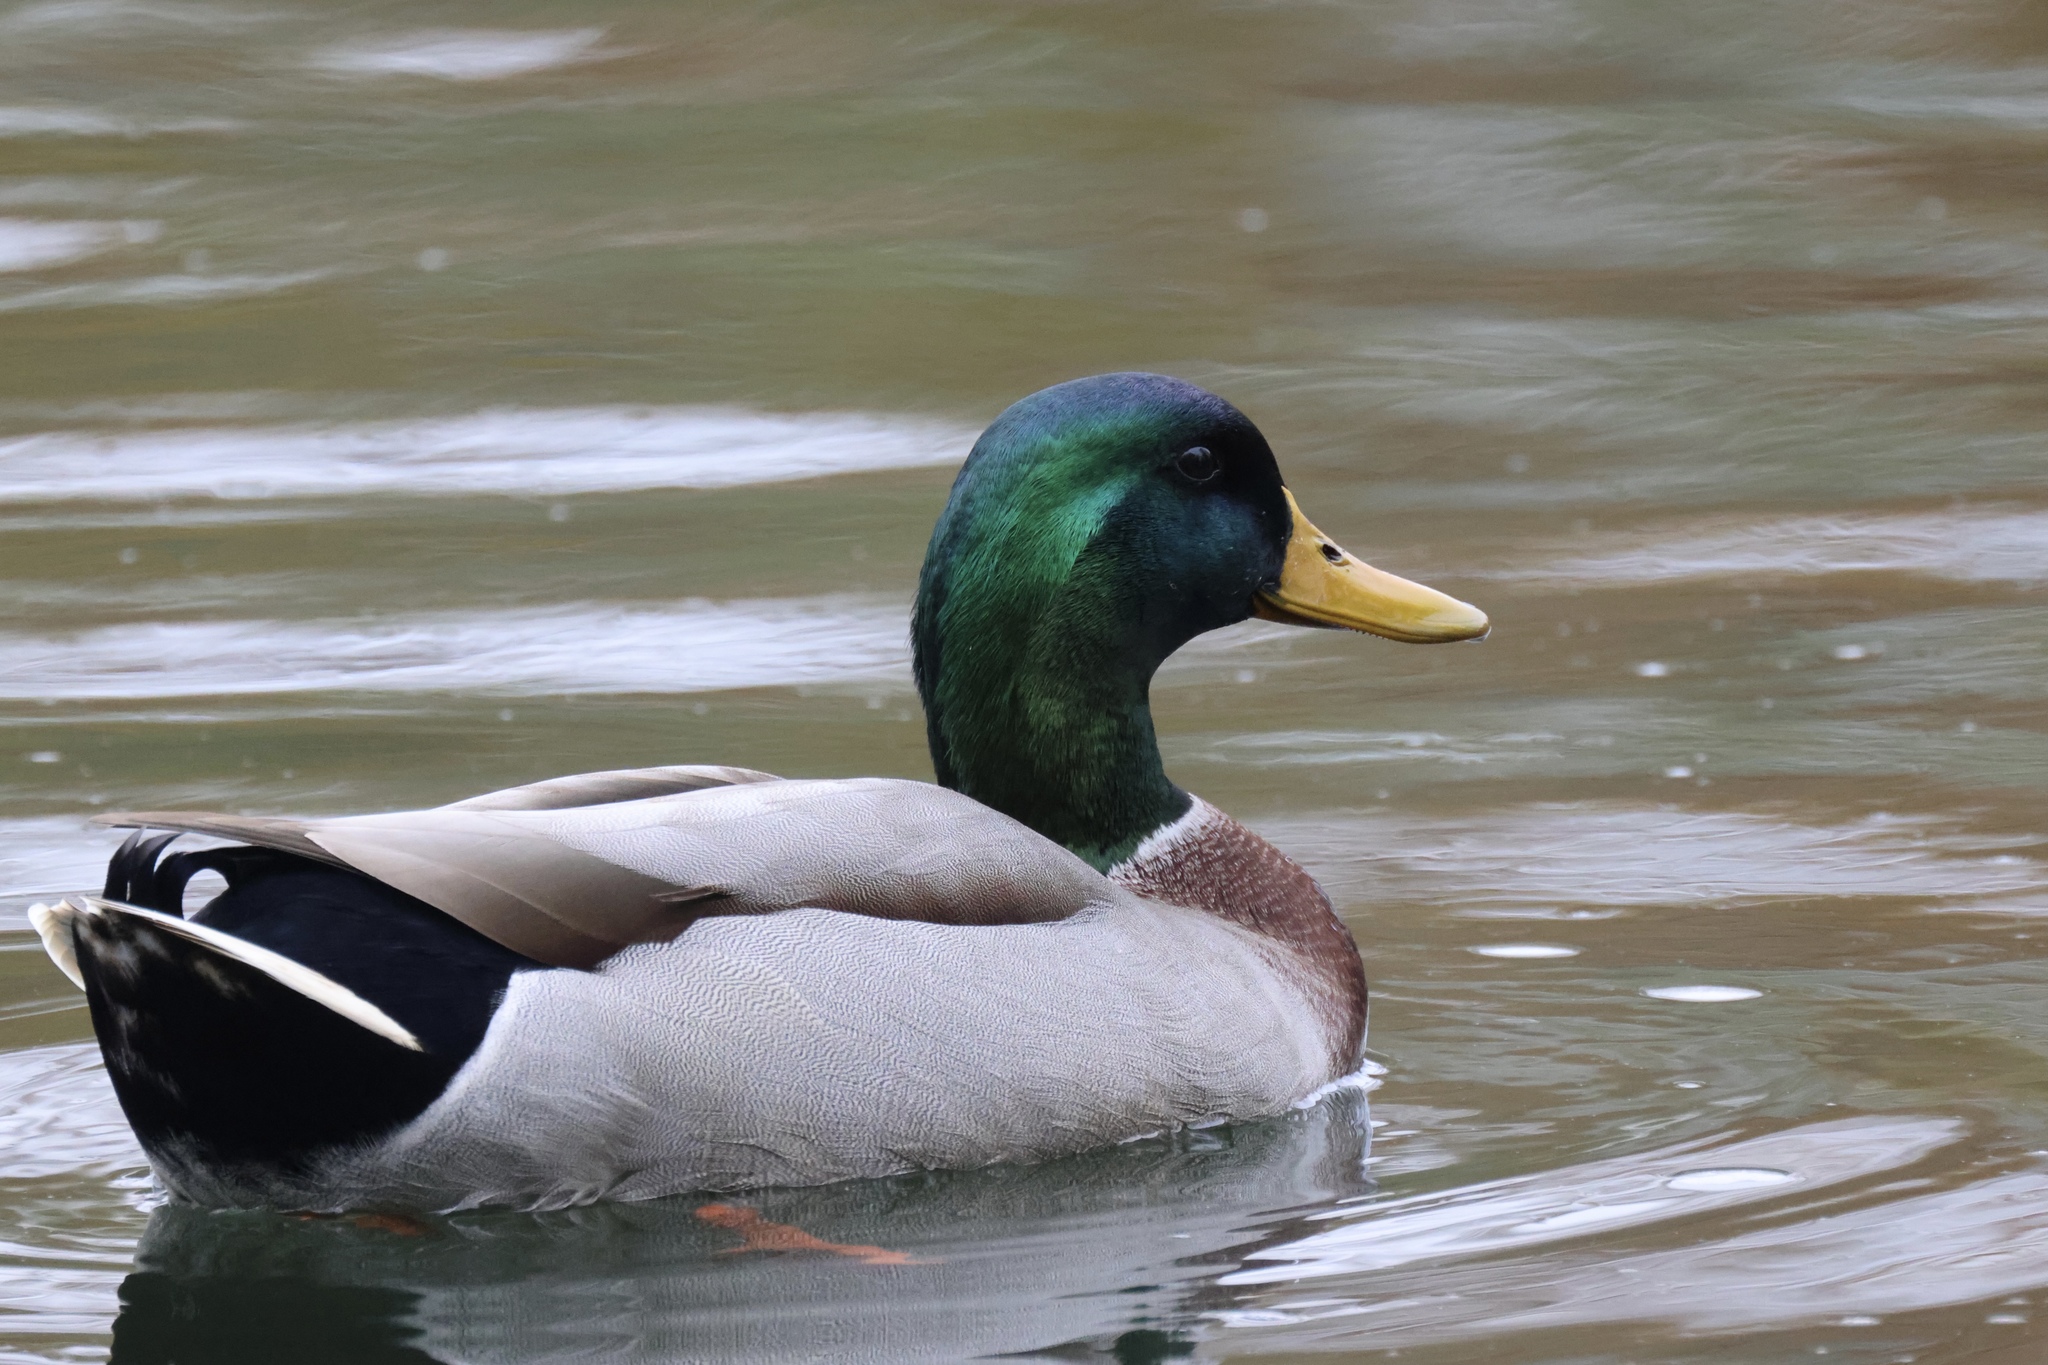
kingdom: Animalia
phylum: Chordata
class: Aves
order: Anseriformes
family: Anatidae
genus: Anas
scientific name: Anas platyrhynchos
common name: Mallard
